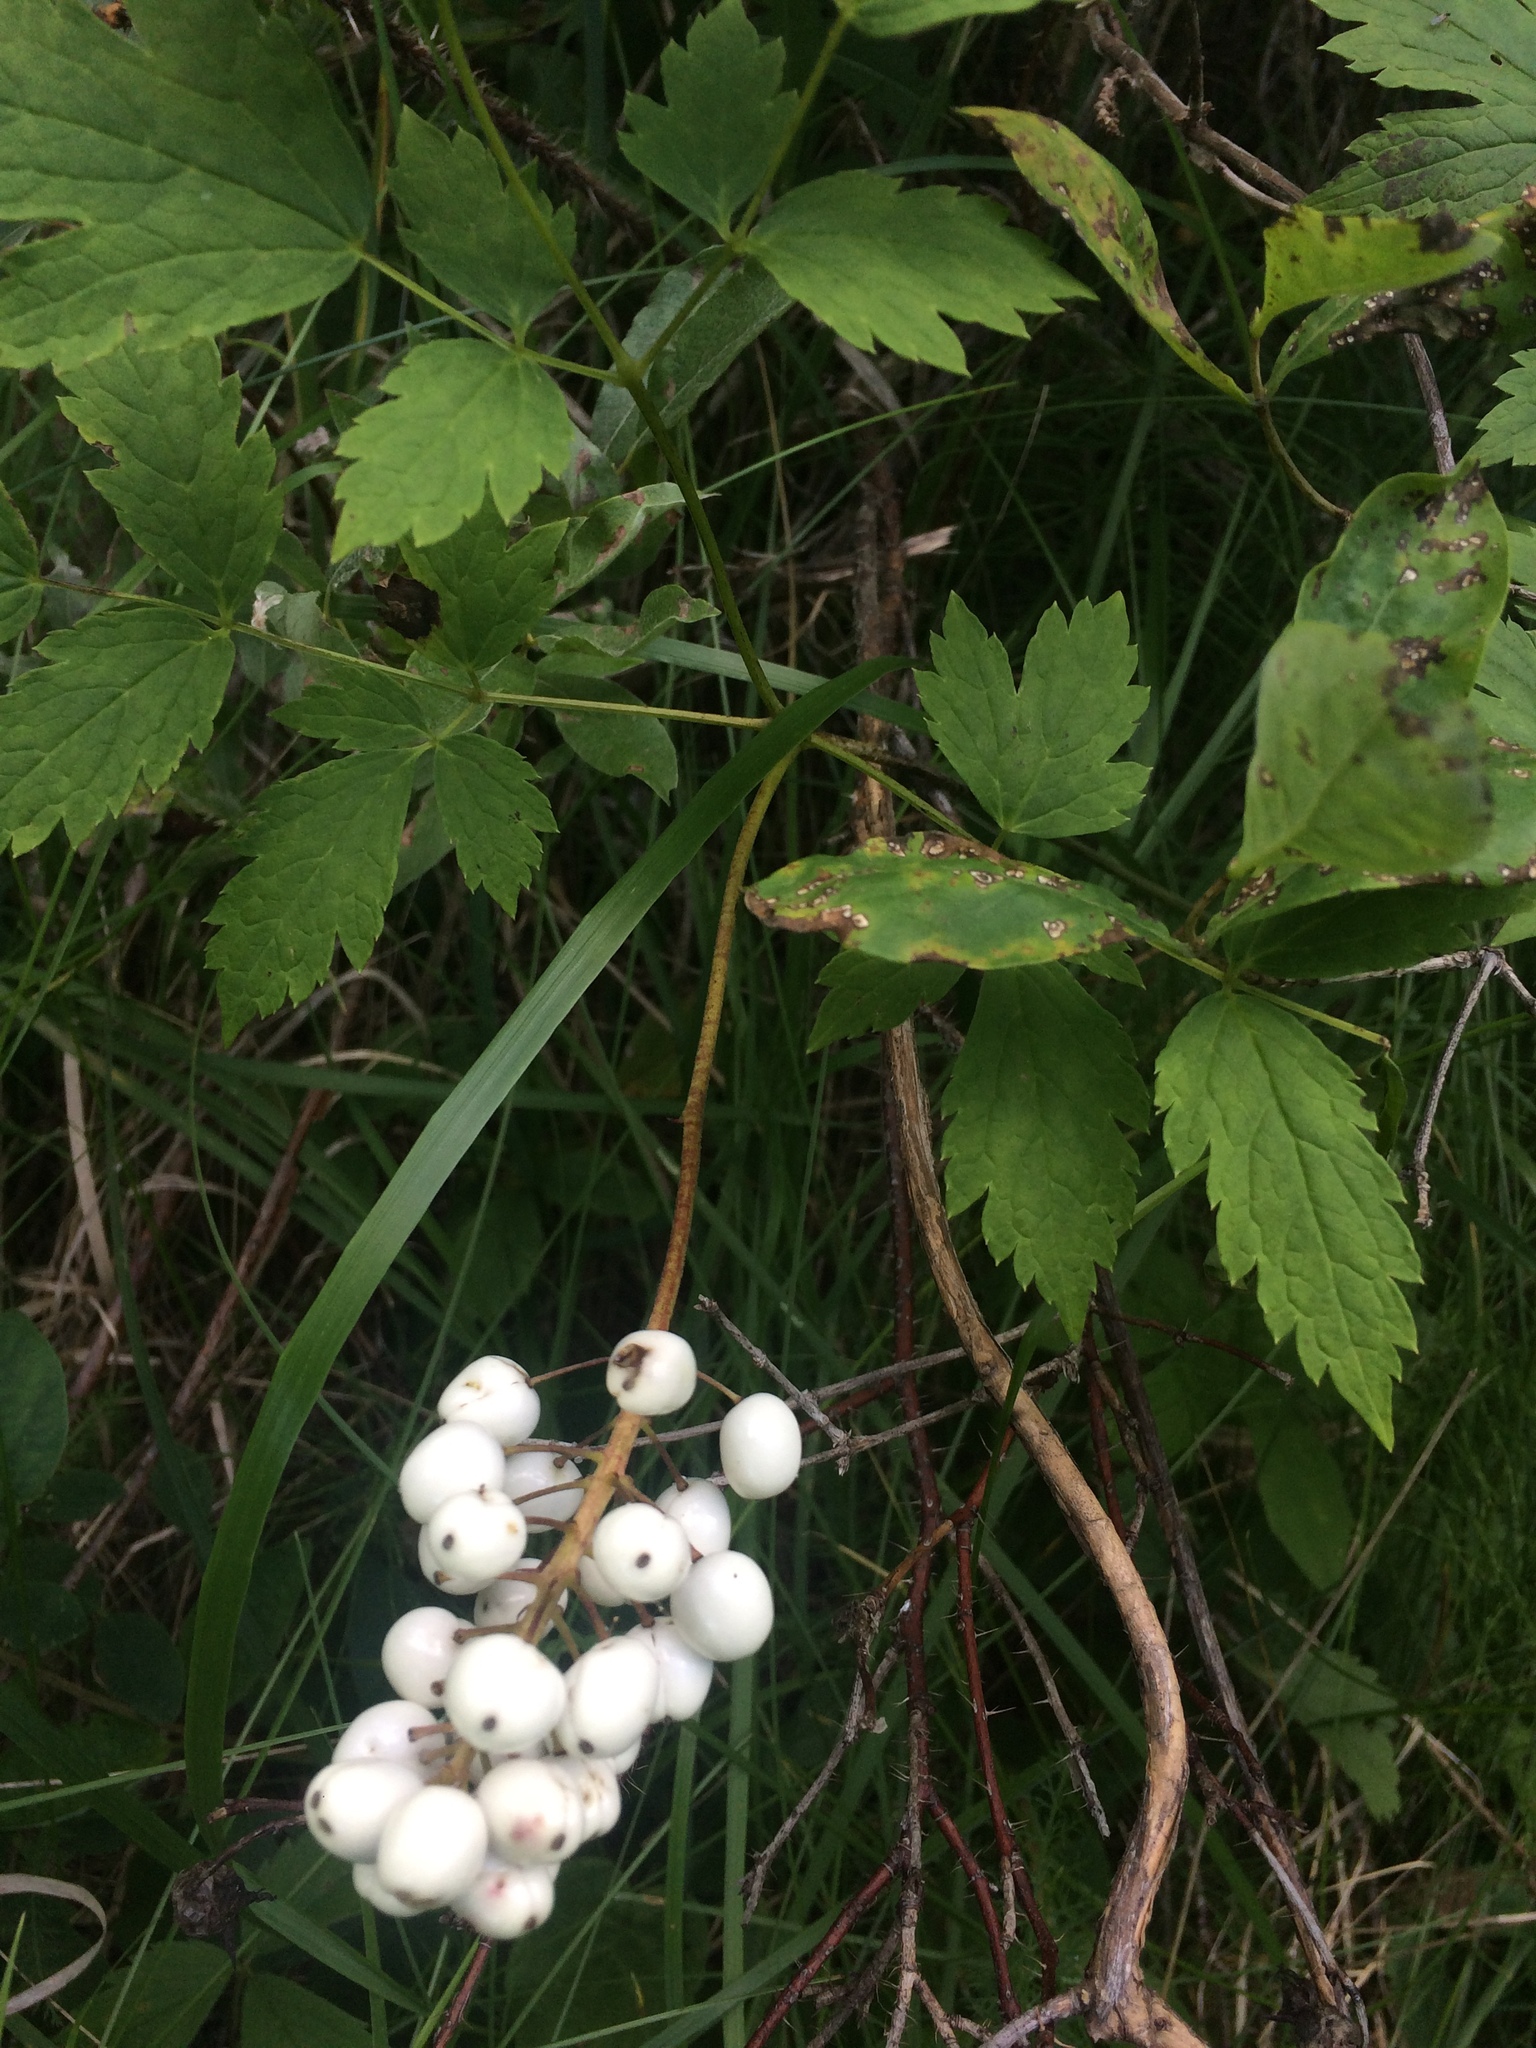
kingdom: Plantae
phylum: Tracheophyta
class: Magnoliopsida
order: Ranunculales
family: Ranunculaceae
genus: Actaea
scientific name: Actaea rubra
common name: Red baneberry
